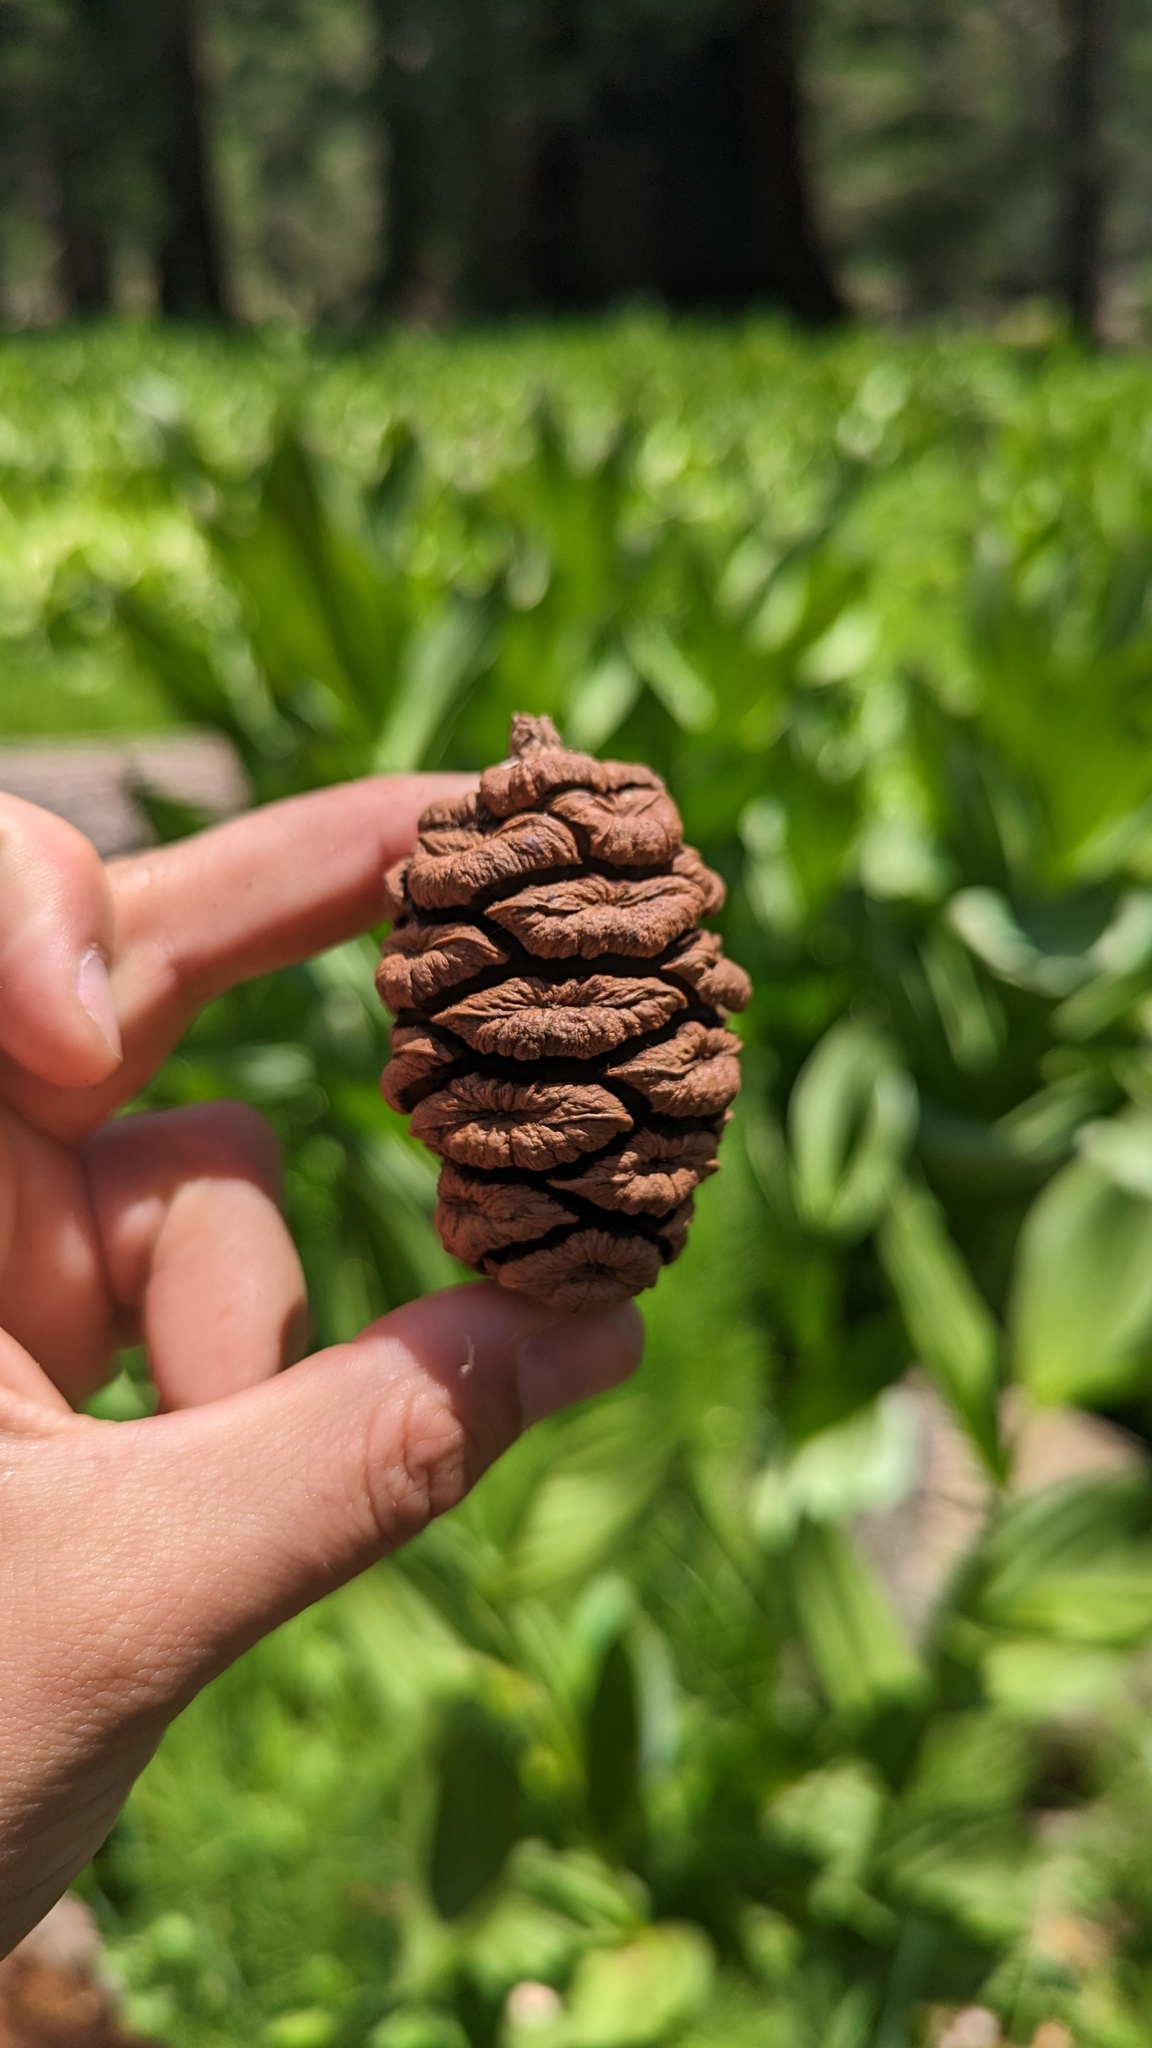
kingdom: Plantae
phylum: Tracheophyta
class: Pinopsida
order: Pinales
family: Cupressaceae
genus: Sequoiadendron
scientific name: Sequoiadendron giganteum
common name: Wellingtonia
